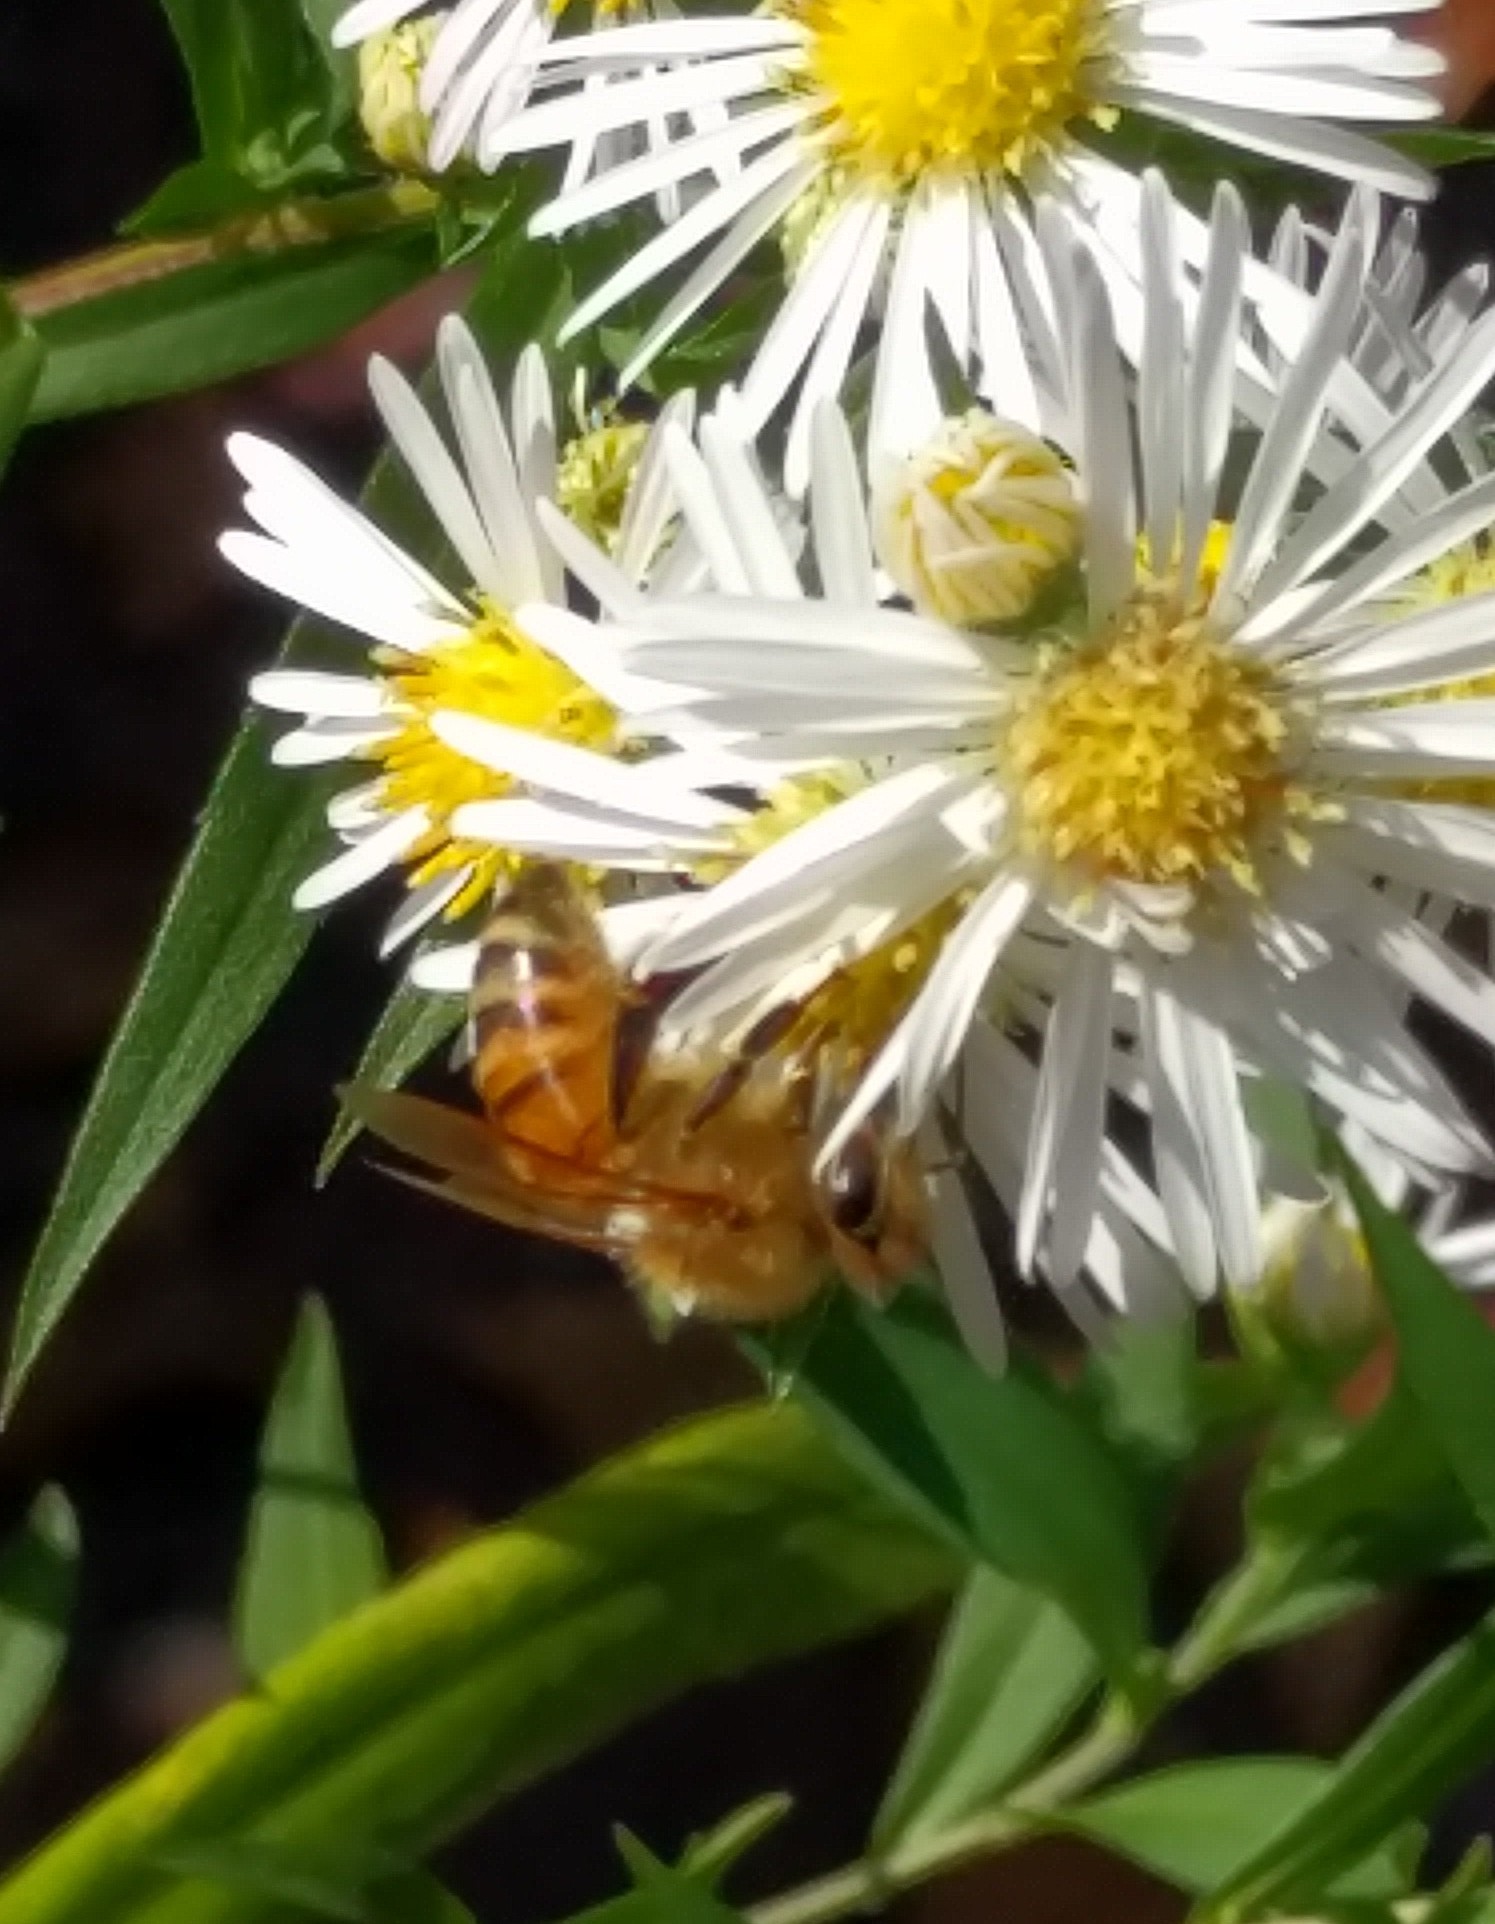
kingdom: Animalia
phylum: Arthropoda
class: Insecta
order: Hymenoptera
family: Apidae
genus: Apis
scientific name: Apis mellifera
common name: Honey bee
